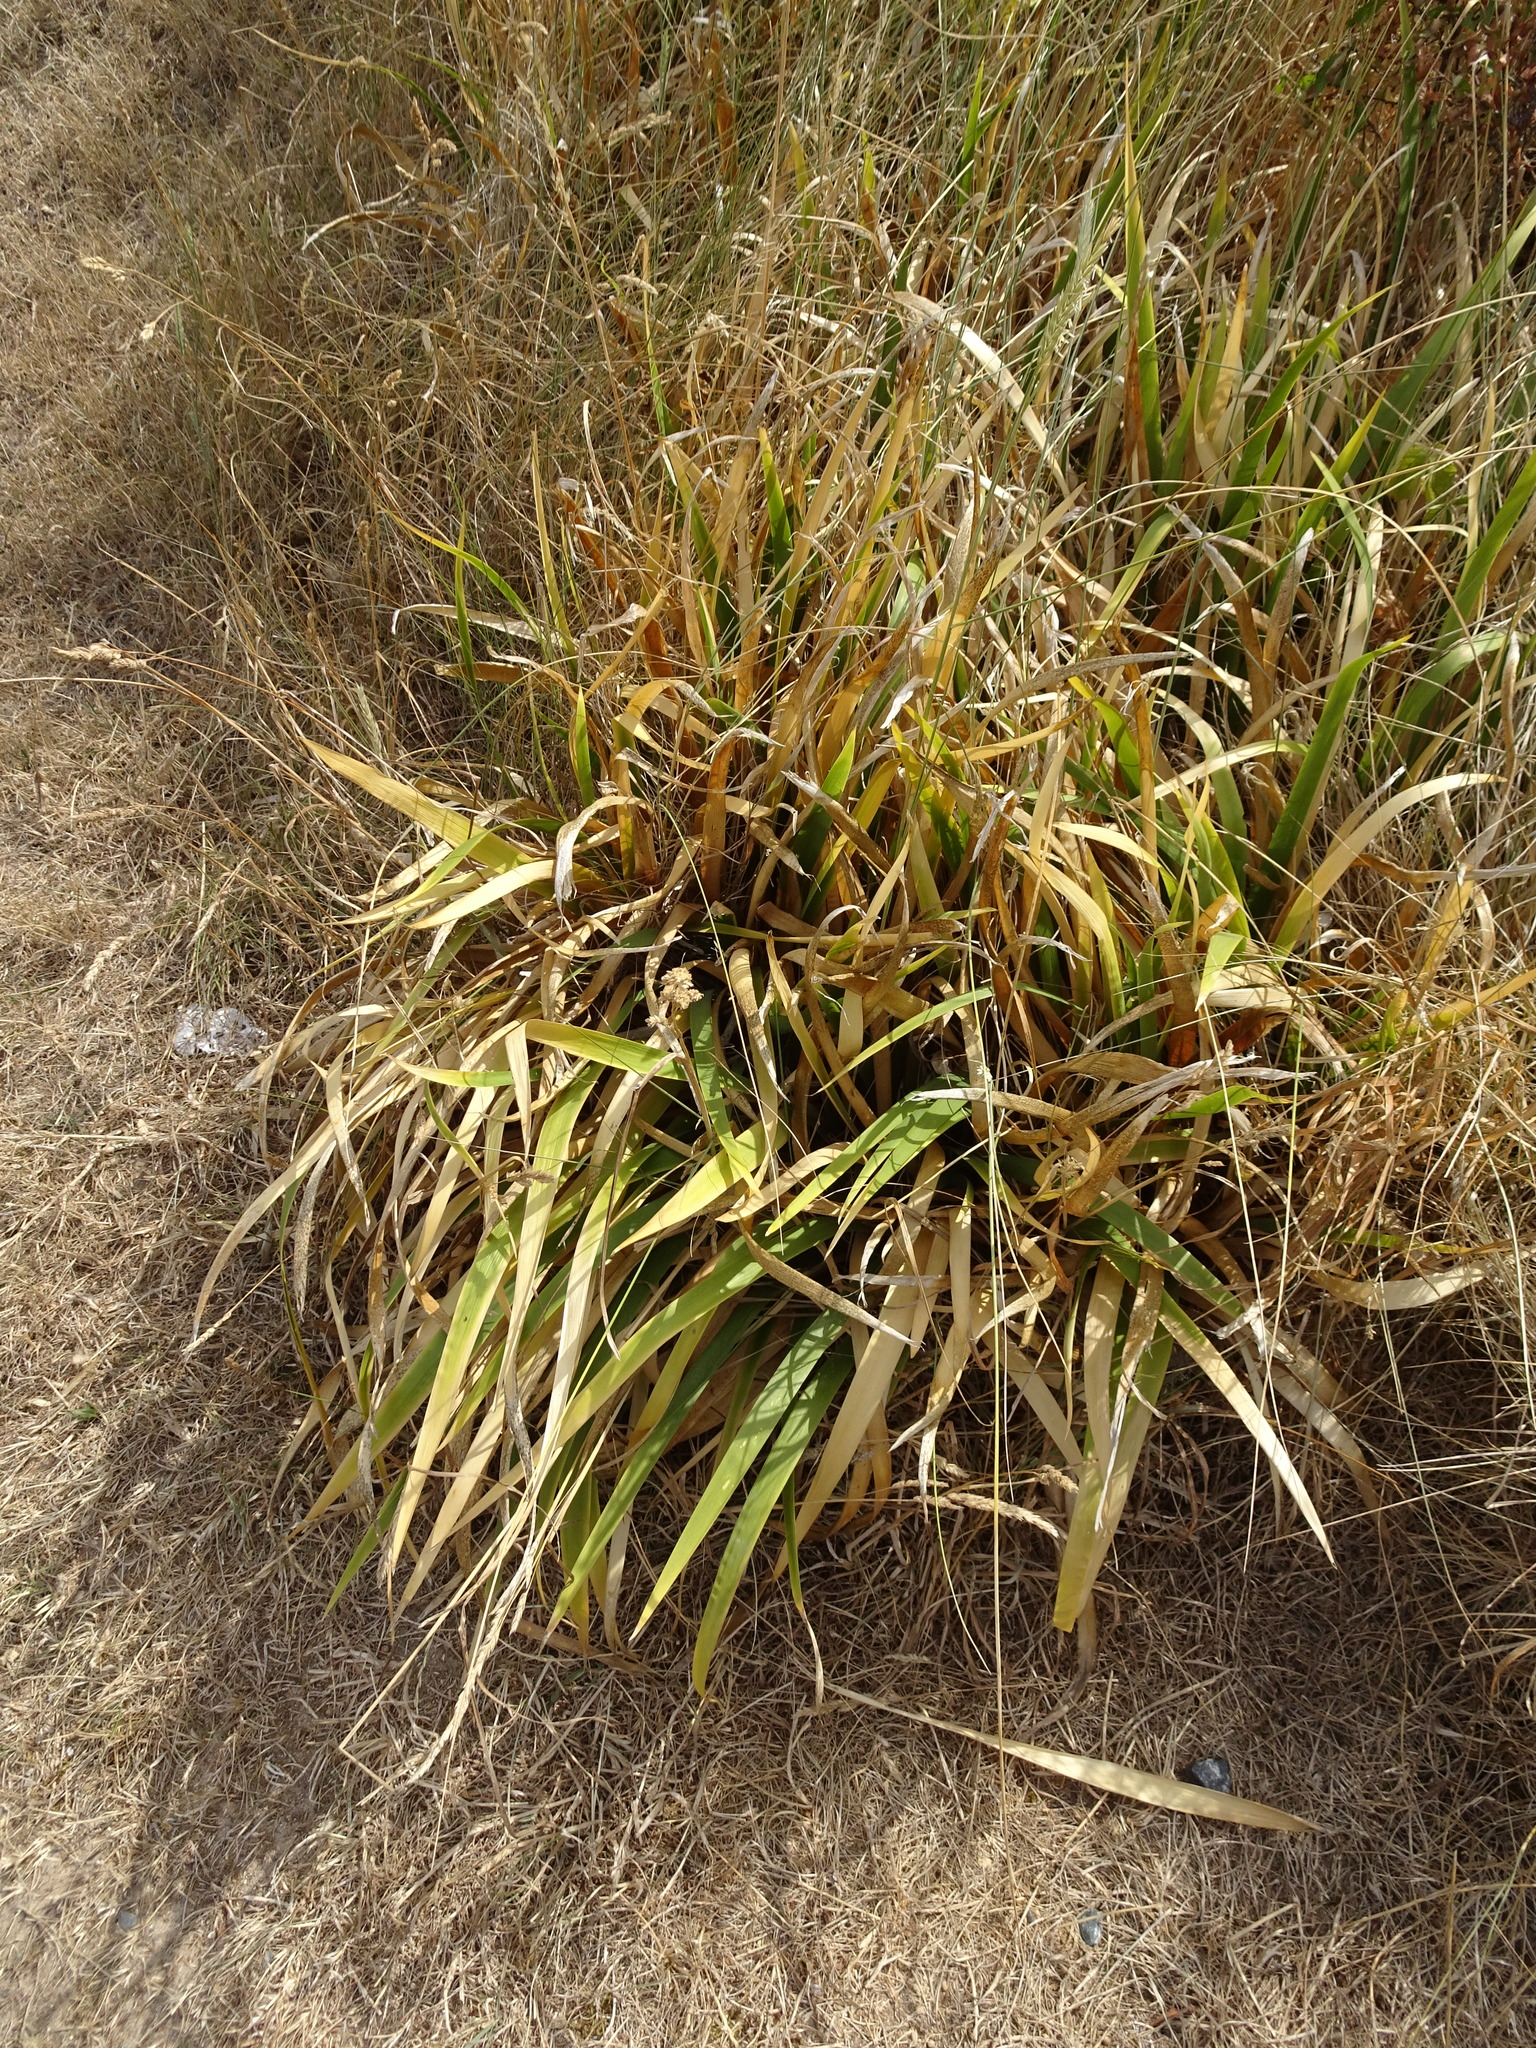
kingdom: Plantae
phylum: Tracheophyta
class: Liliopsida
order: Asparagales
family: Iridaceae
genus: Iris
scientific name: Iris foetidissima
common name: Stinking iris
